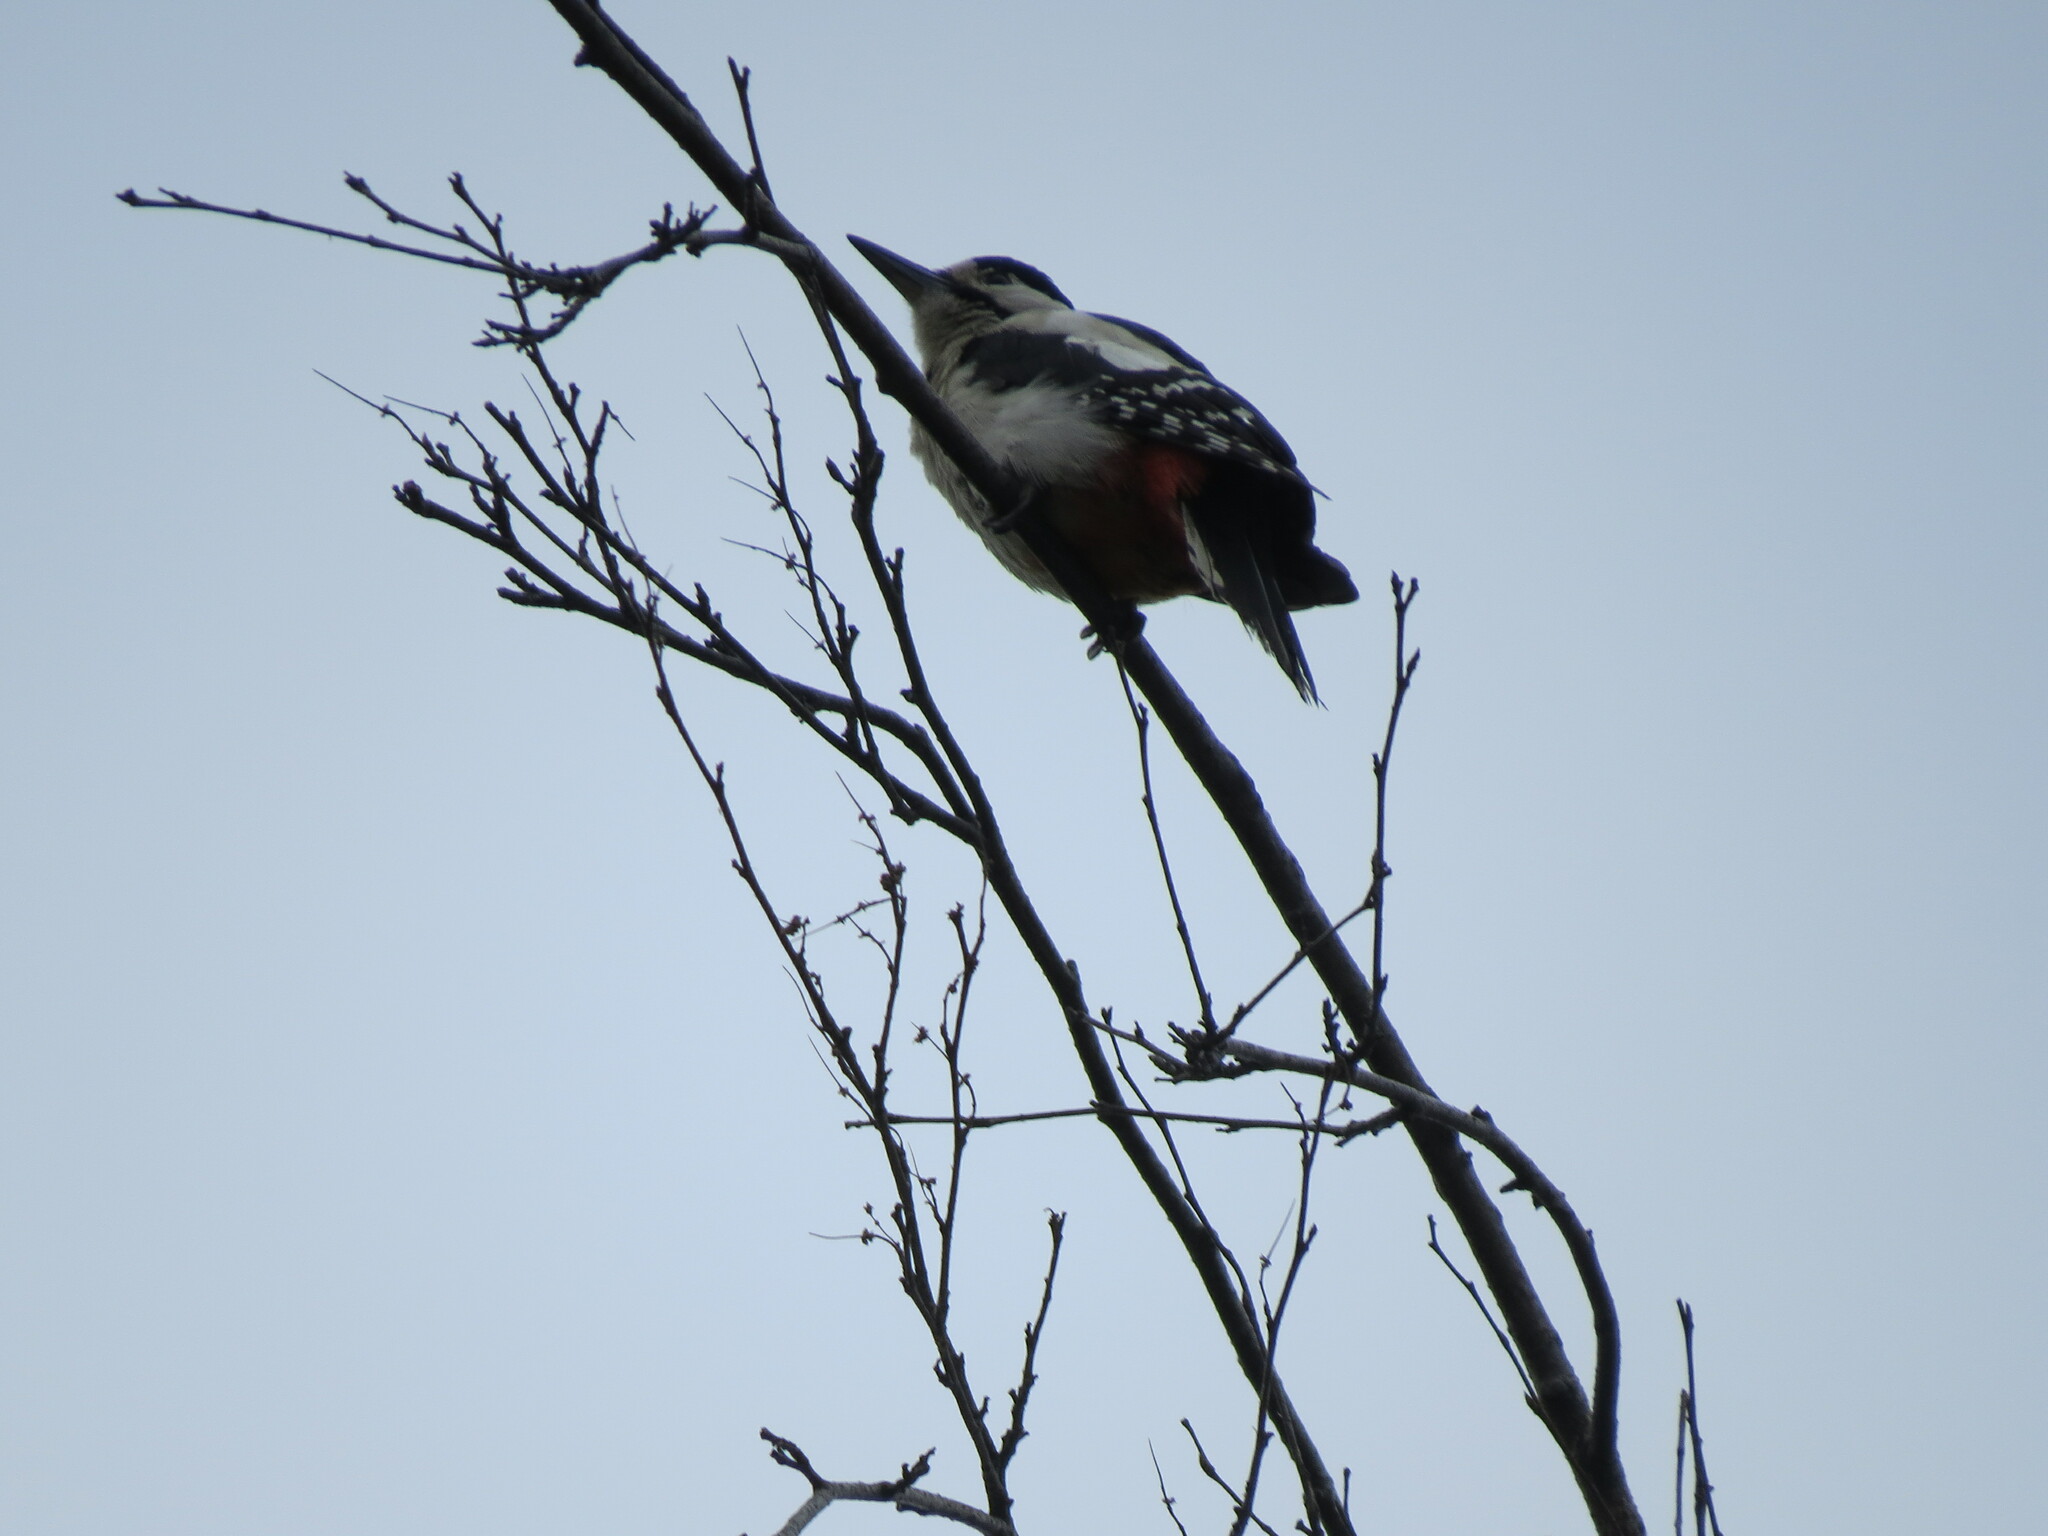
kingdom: Animalia
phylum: Chordata
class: Aves
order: Piciformes
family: Picidae
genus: Dendrocopos
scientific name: Dendrocopos major
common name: Great spotted woodpecker
